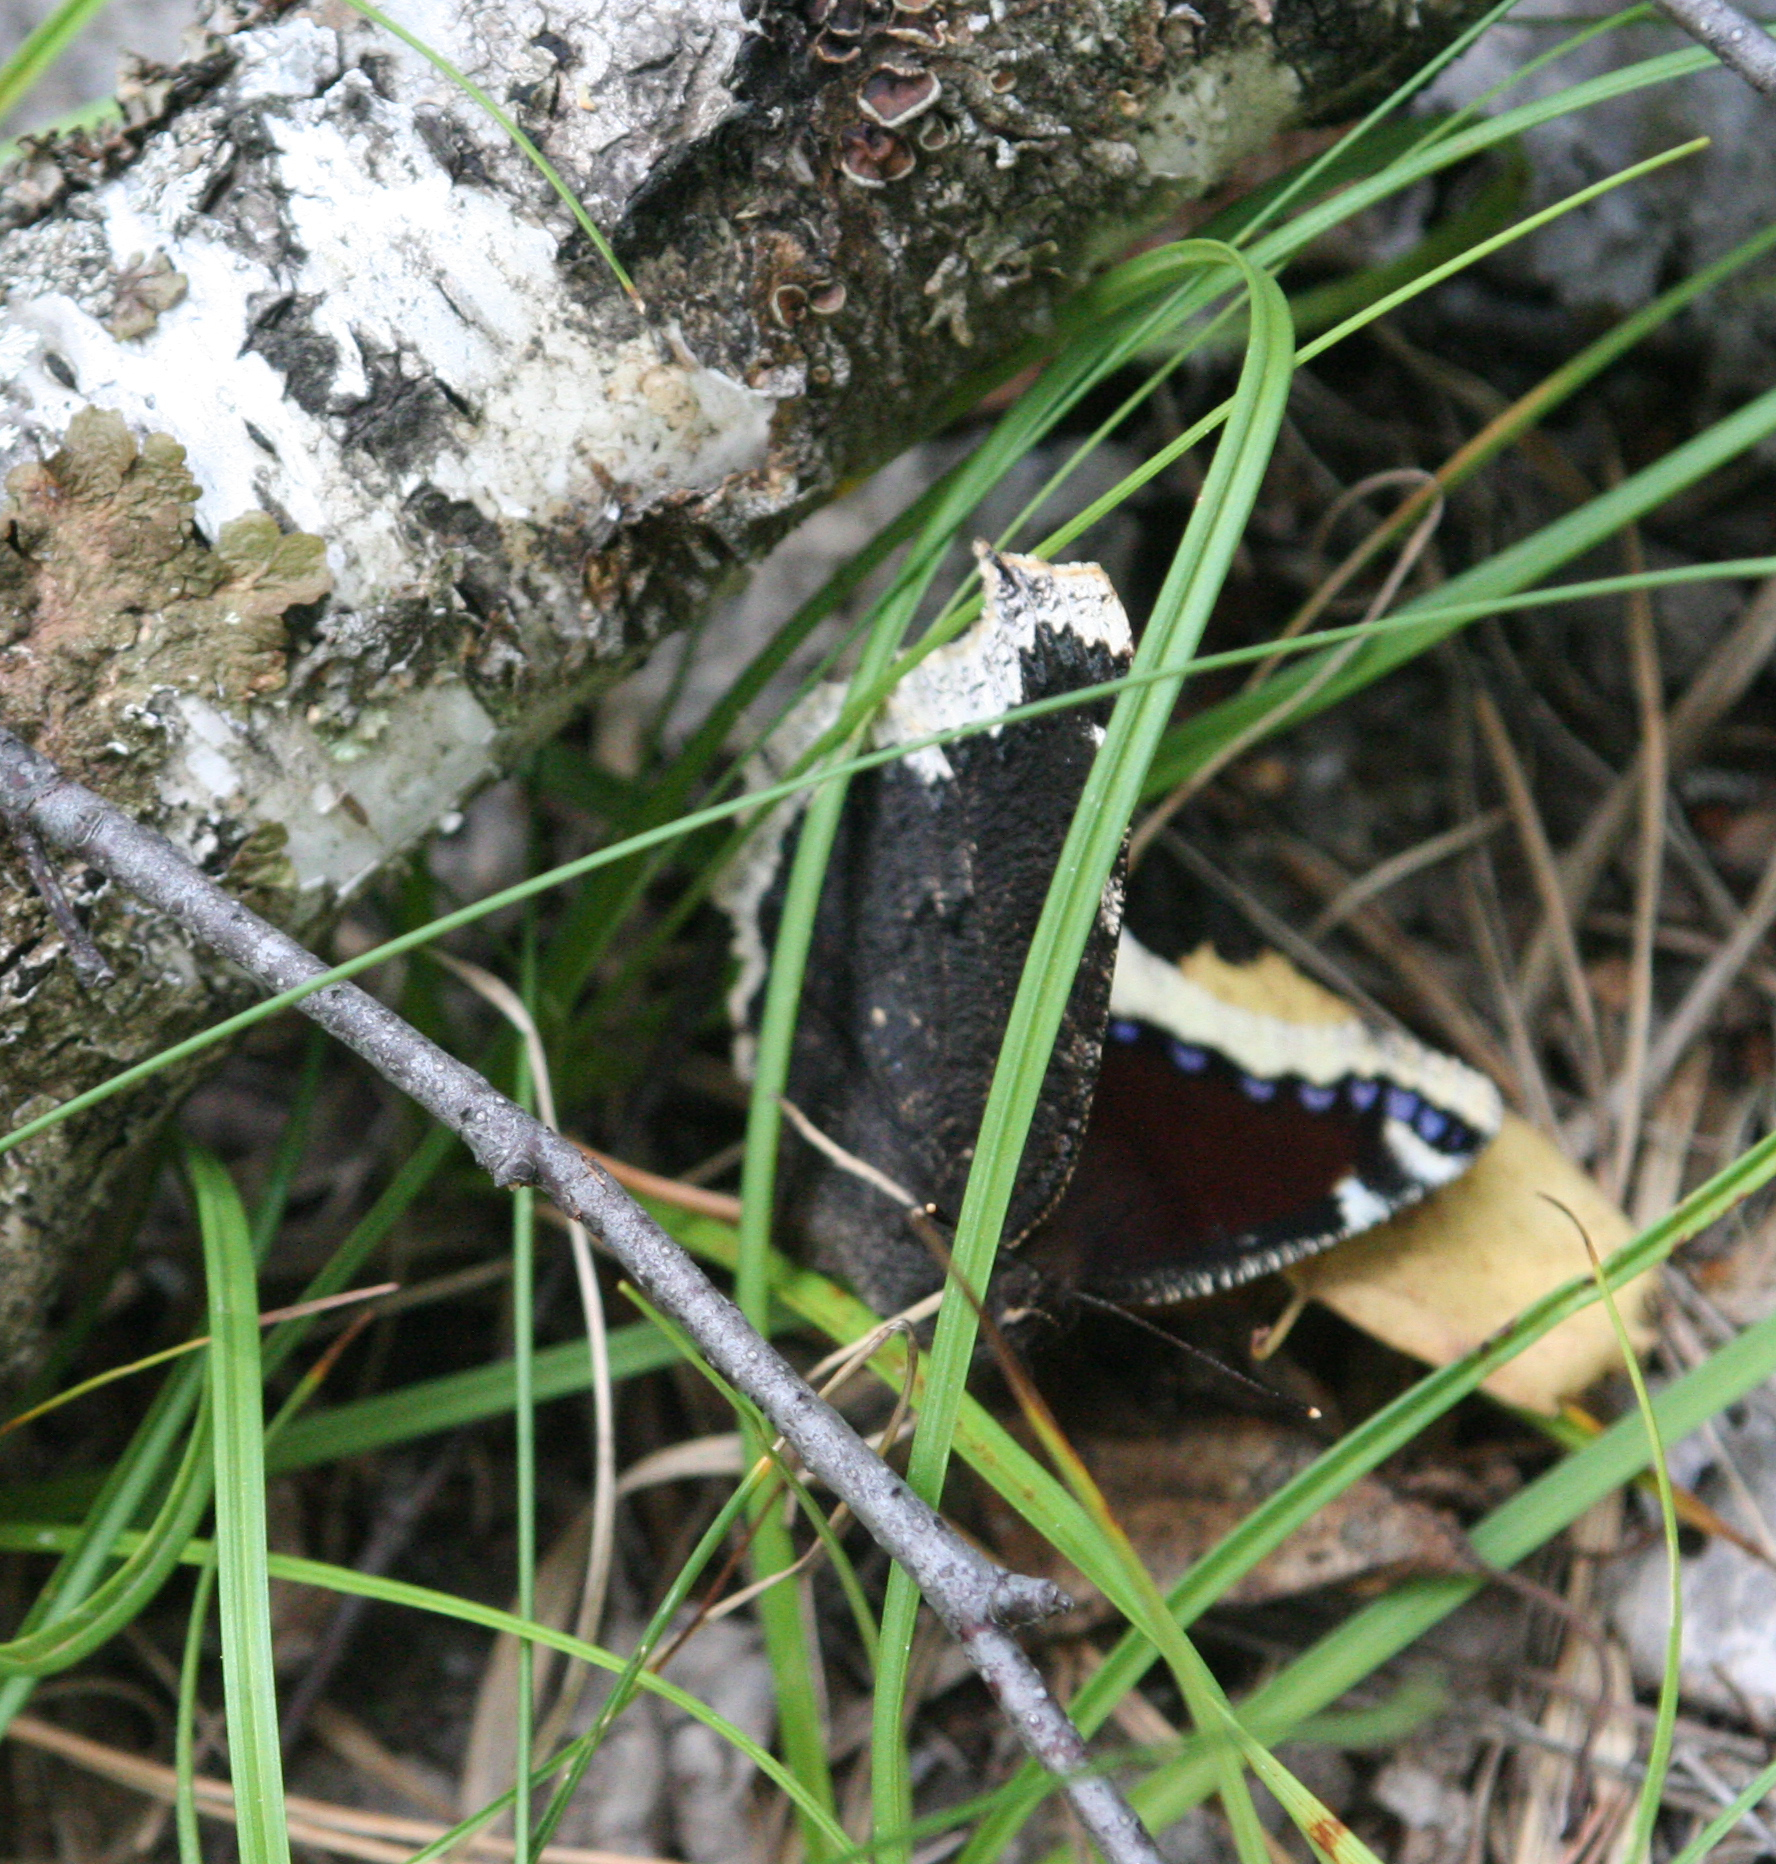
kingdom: Animalia
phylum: Arthropoda
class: Insecta
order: Lepidoptera
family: Nymphalidae
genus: Nymphalis
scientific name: Nymphalis antiopa
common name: Camberwell beauty
